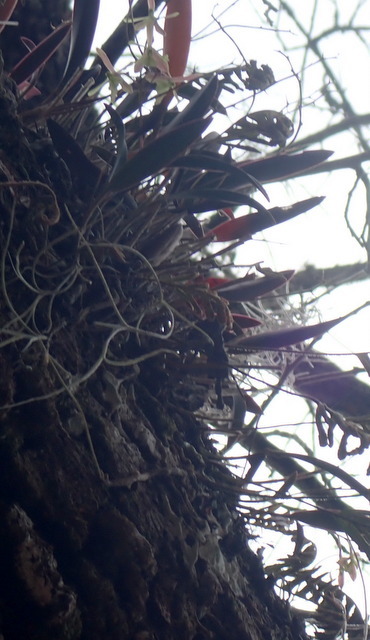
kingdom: Plantae
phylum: Tracheophyta
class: Liliopsida
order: Asparagales
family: Orchidaceae
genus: Epidendrum
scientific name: Epidendrum conopseum
